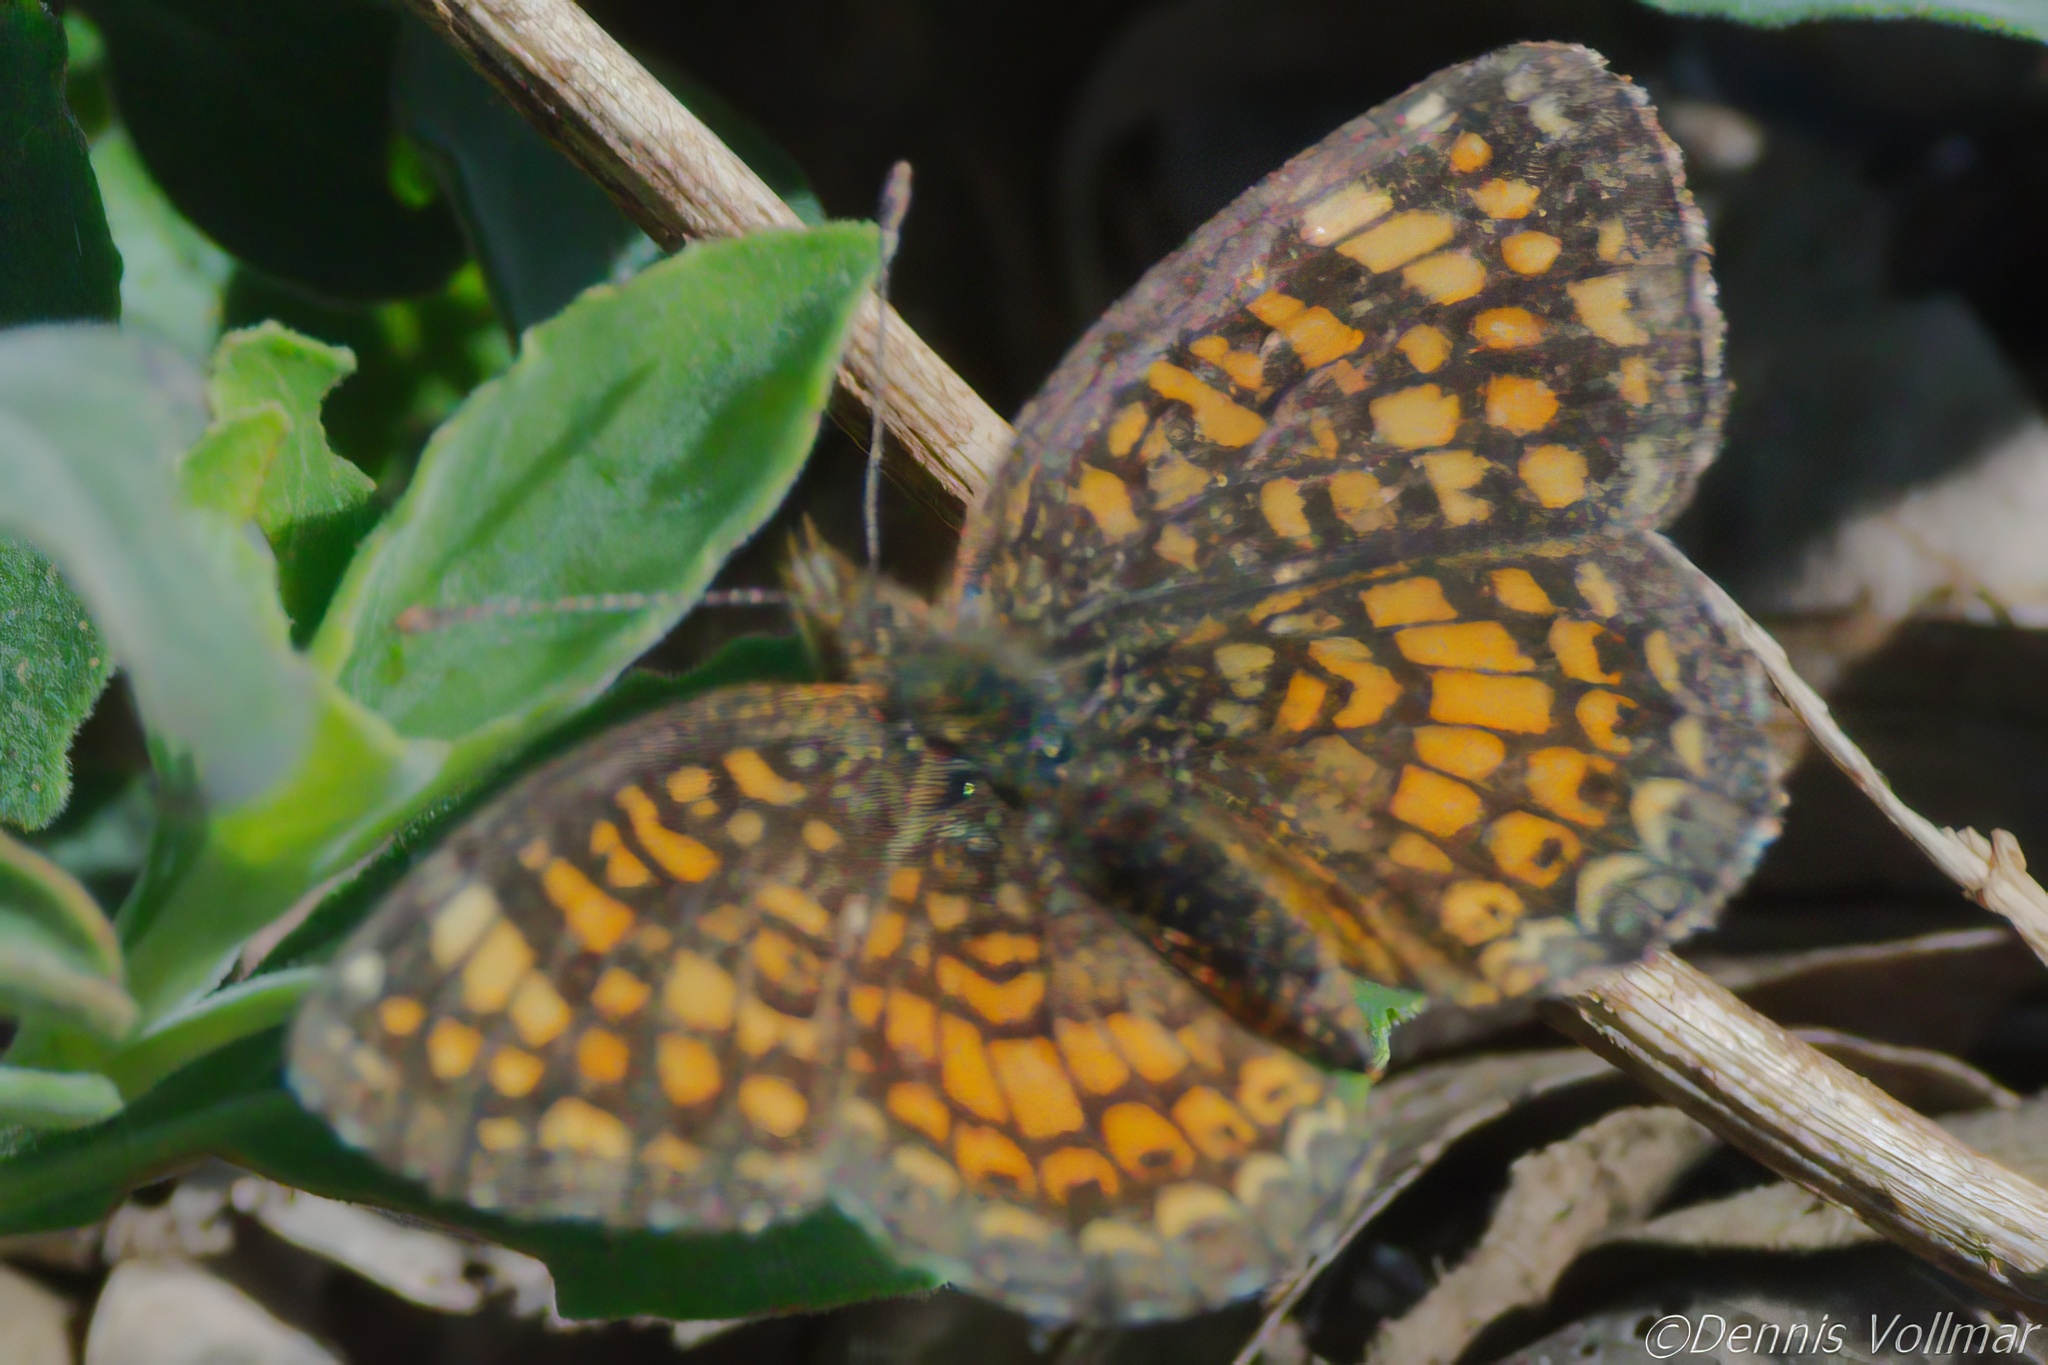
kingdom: Animalia
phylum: Arthropoda
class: Insecta
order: Lepidoptera
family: Nymphalidae
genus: Phyciodes
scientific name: Phyciodes vesta
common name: Vesta crescent
